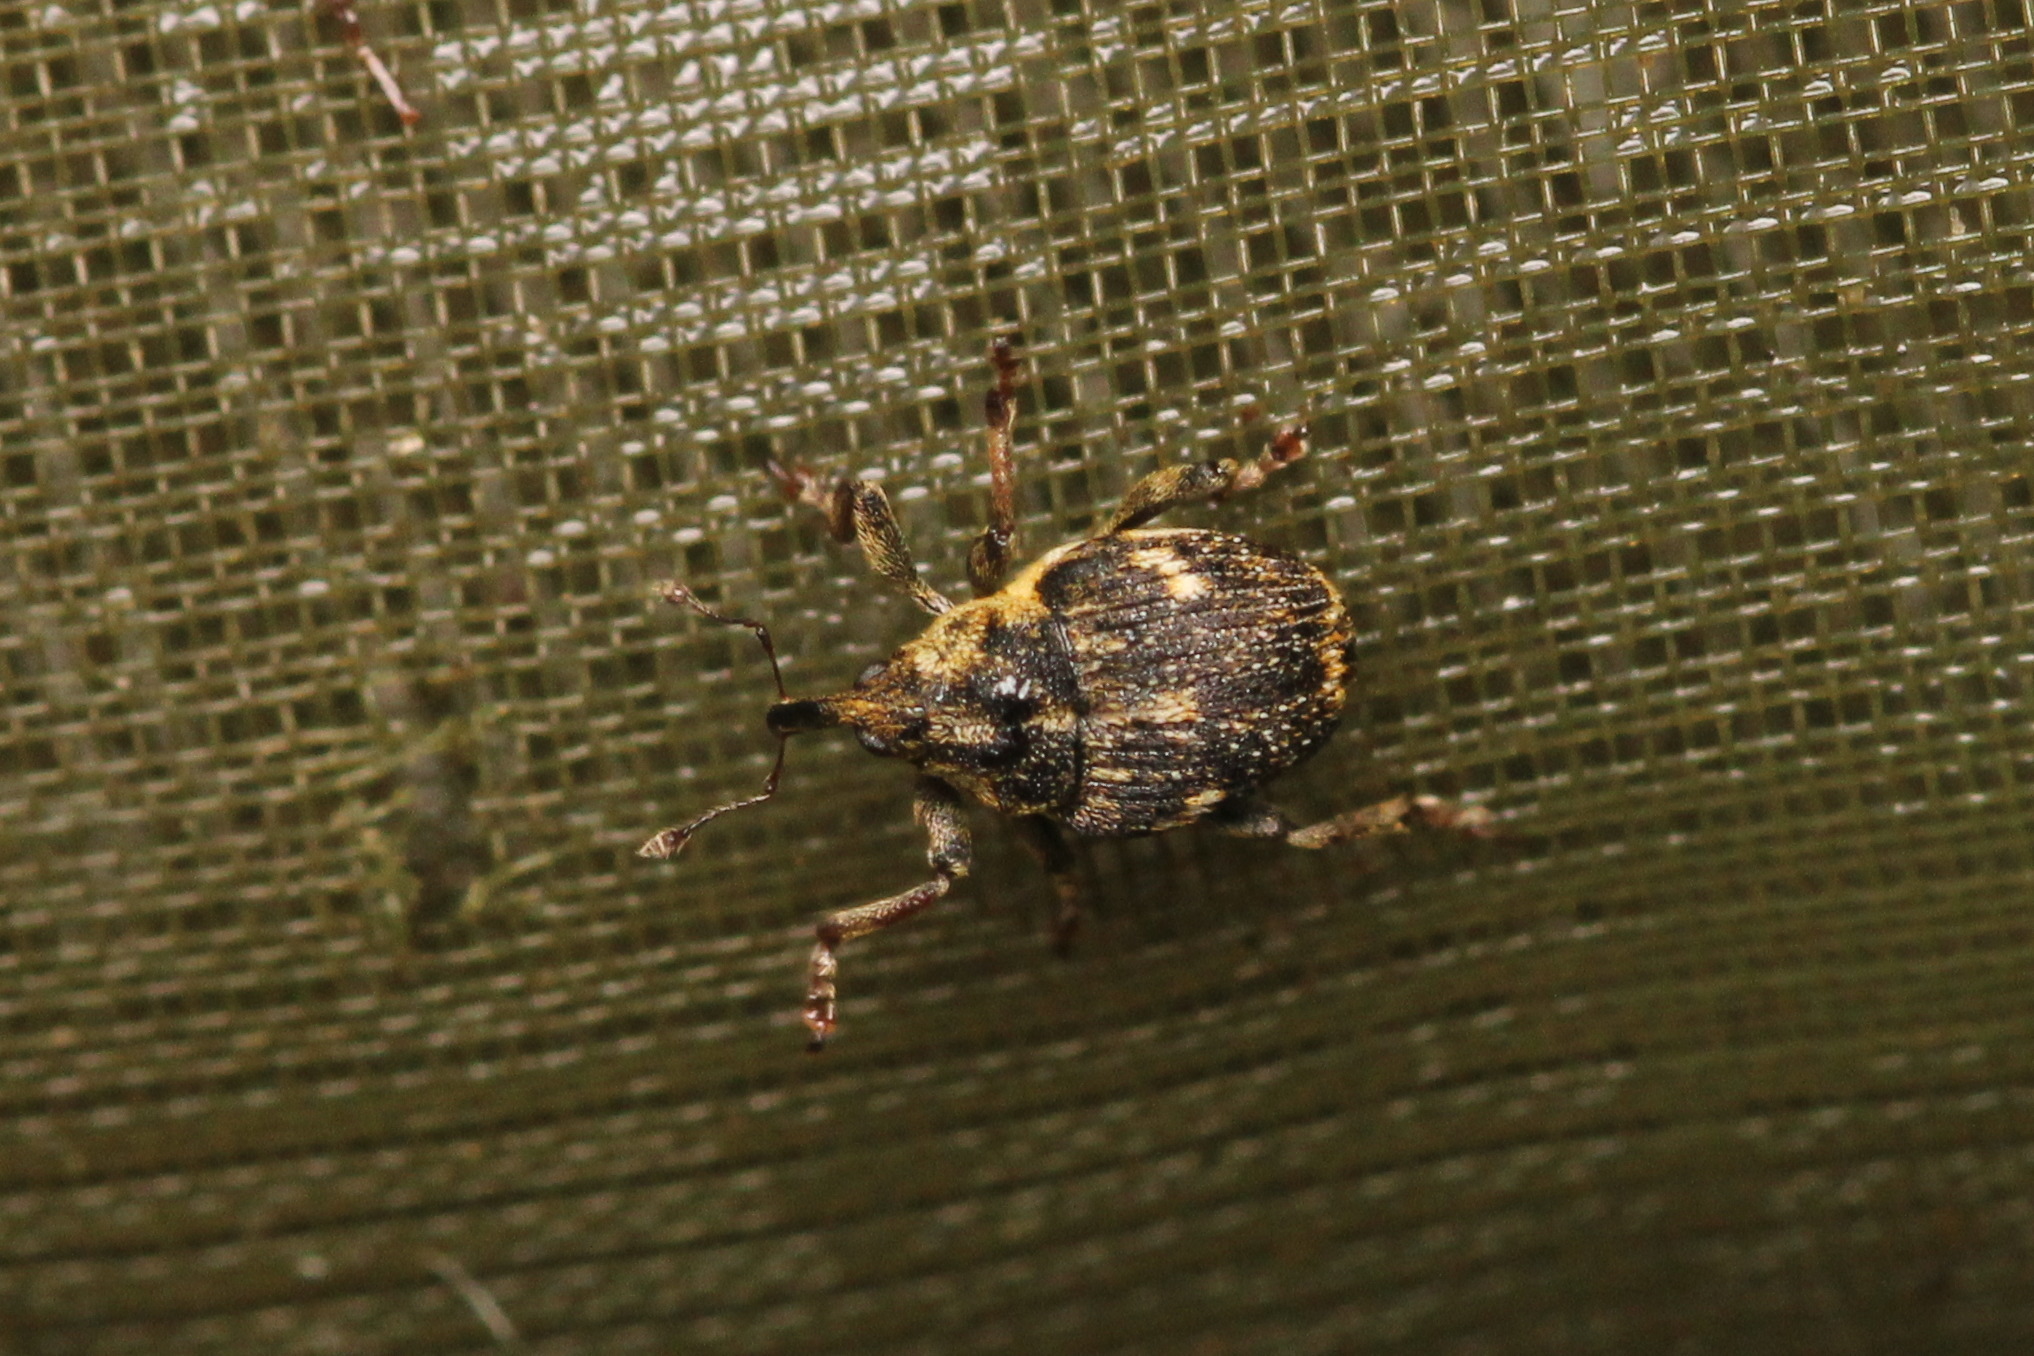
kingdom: Animalia
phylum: Arthropoda
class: Insecta
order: Coleoptera
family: Curculionidae
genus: Nedyus
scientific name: Nedyus quadrimaculatus
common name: Small nettle weevil
